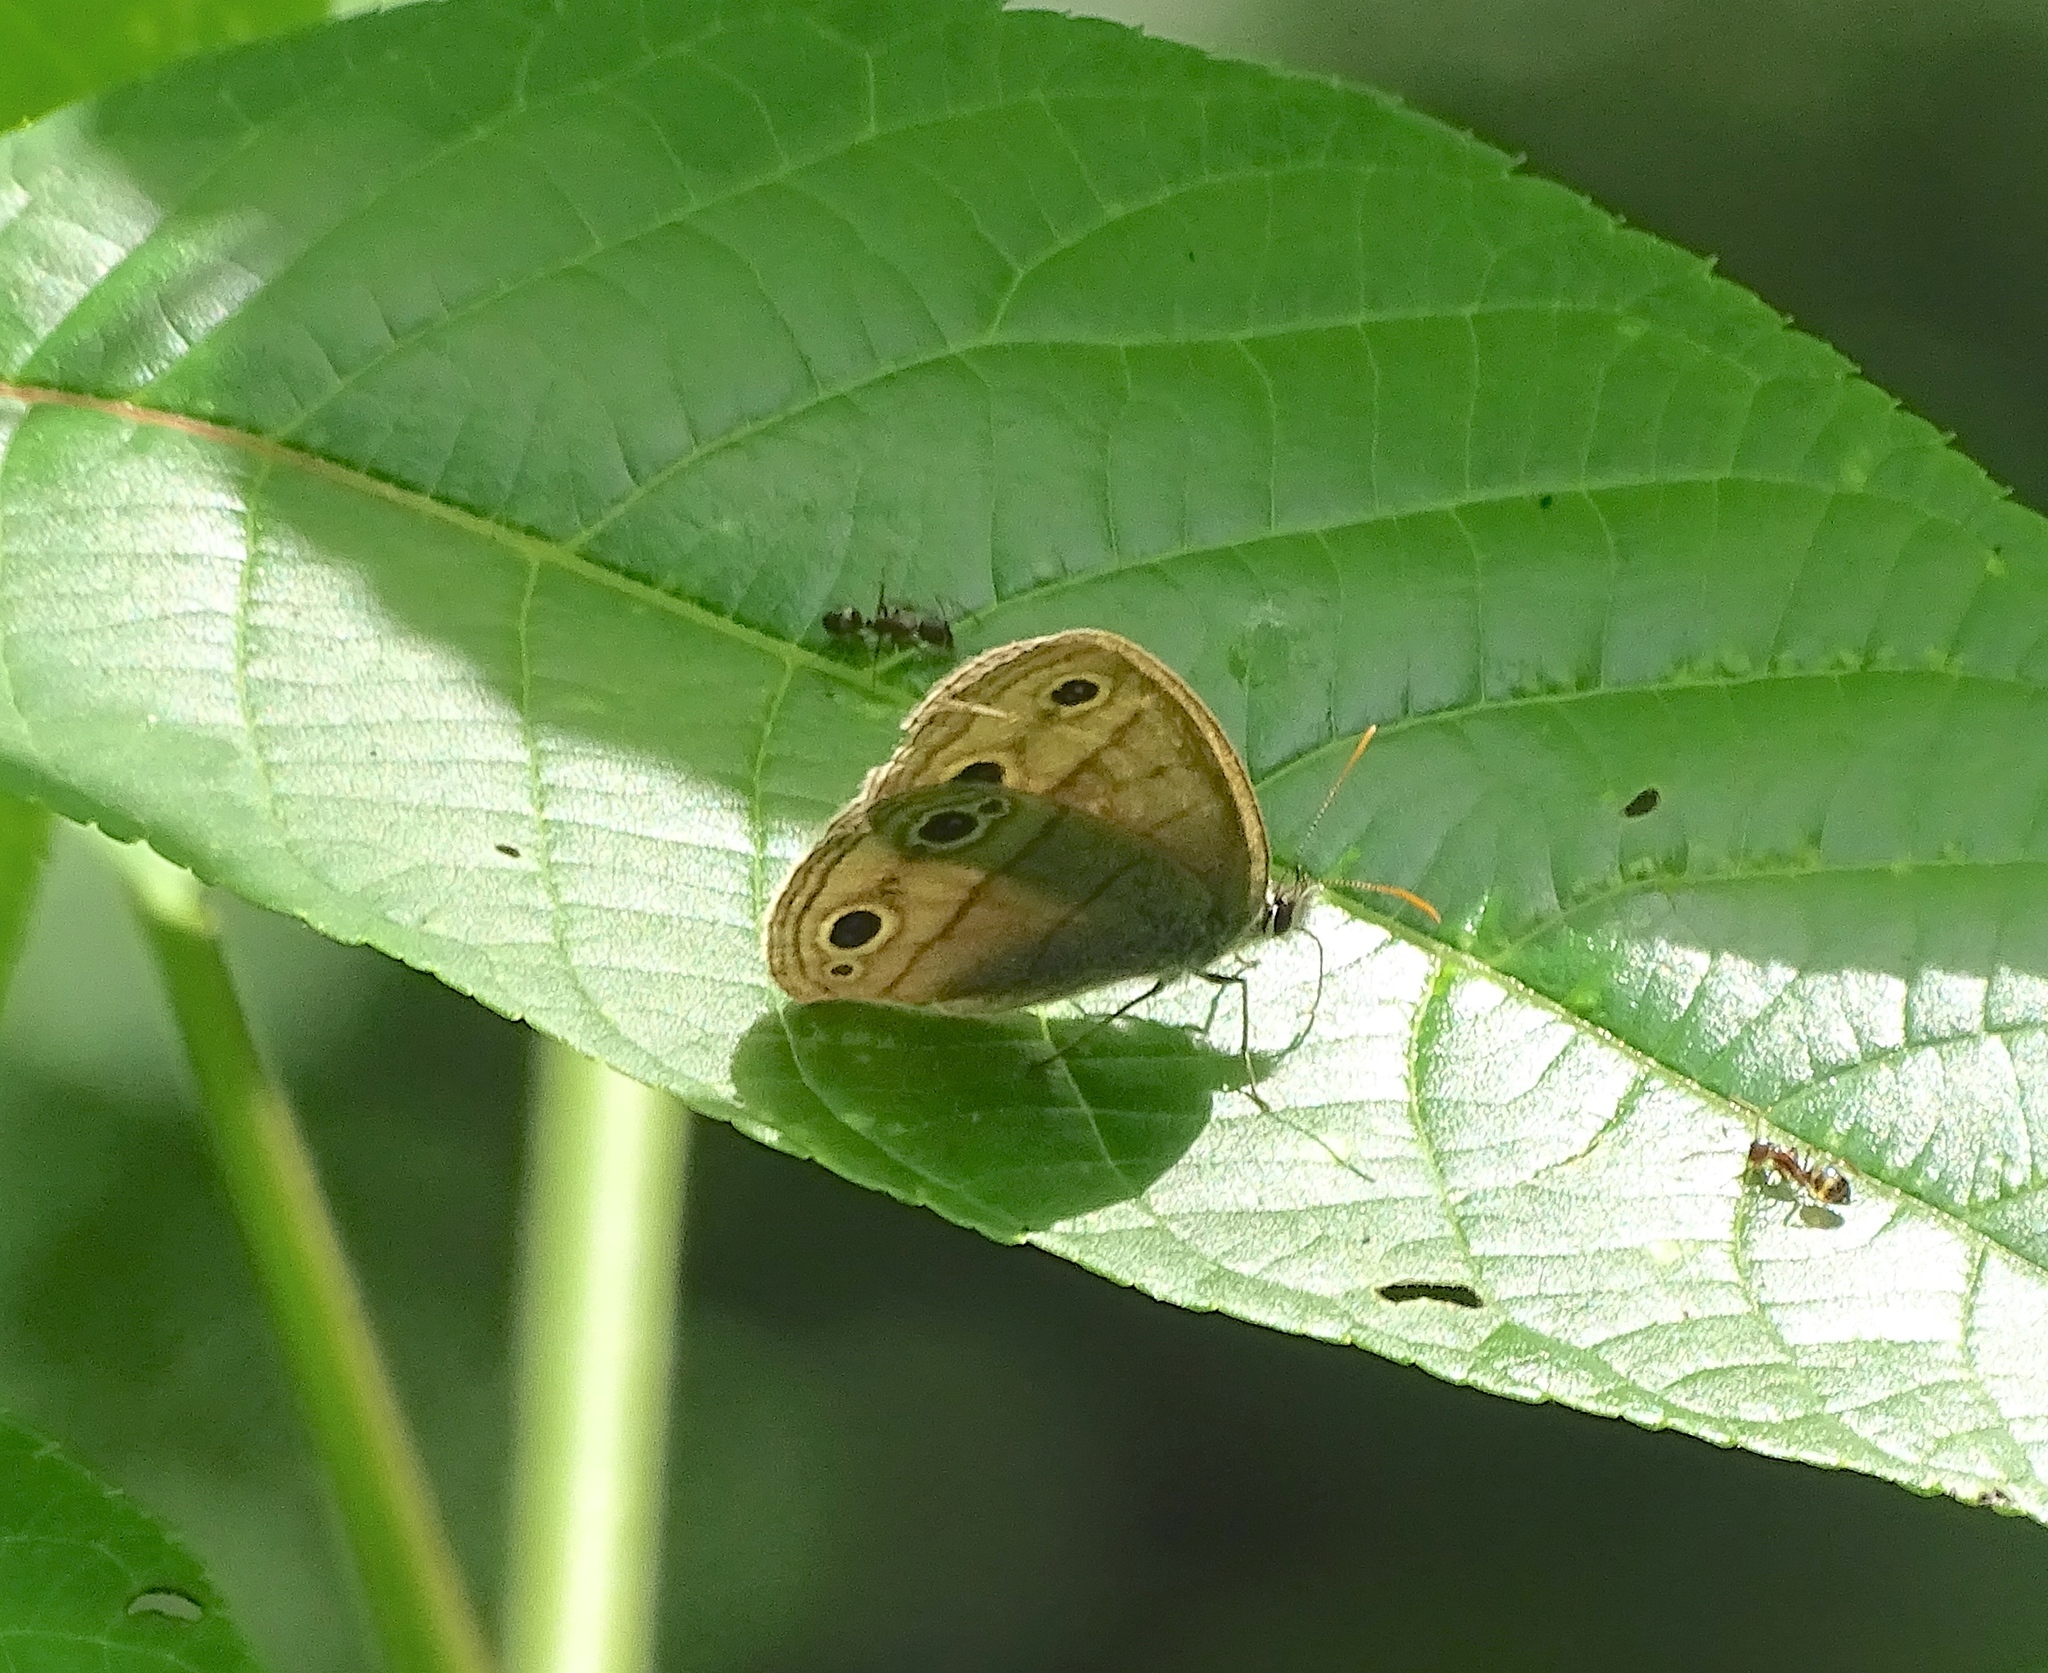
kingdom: Animalia
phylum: Arthropoda
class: Insecta
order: Lepidoptera
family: Nymphalidae
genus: Euptychia
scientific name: Euptychia cymela
